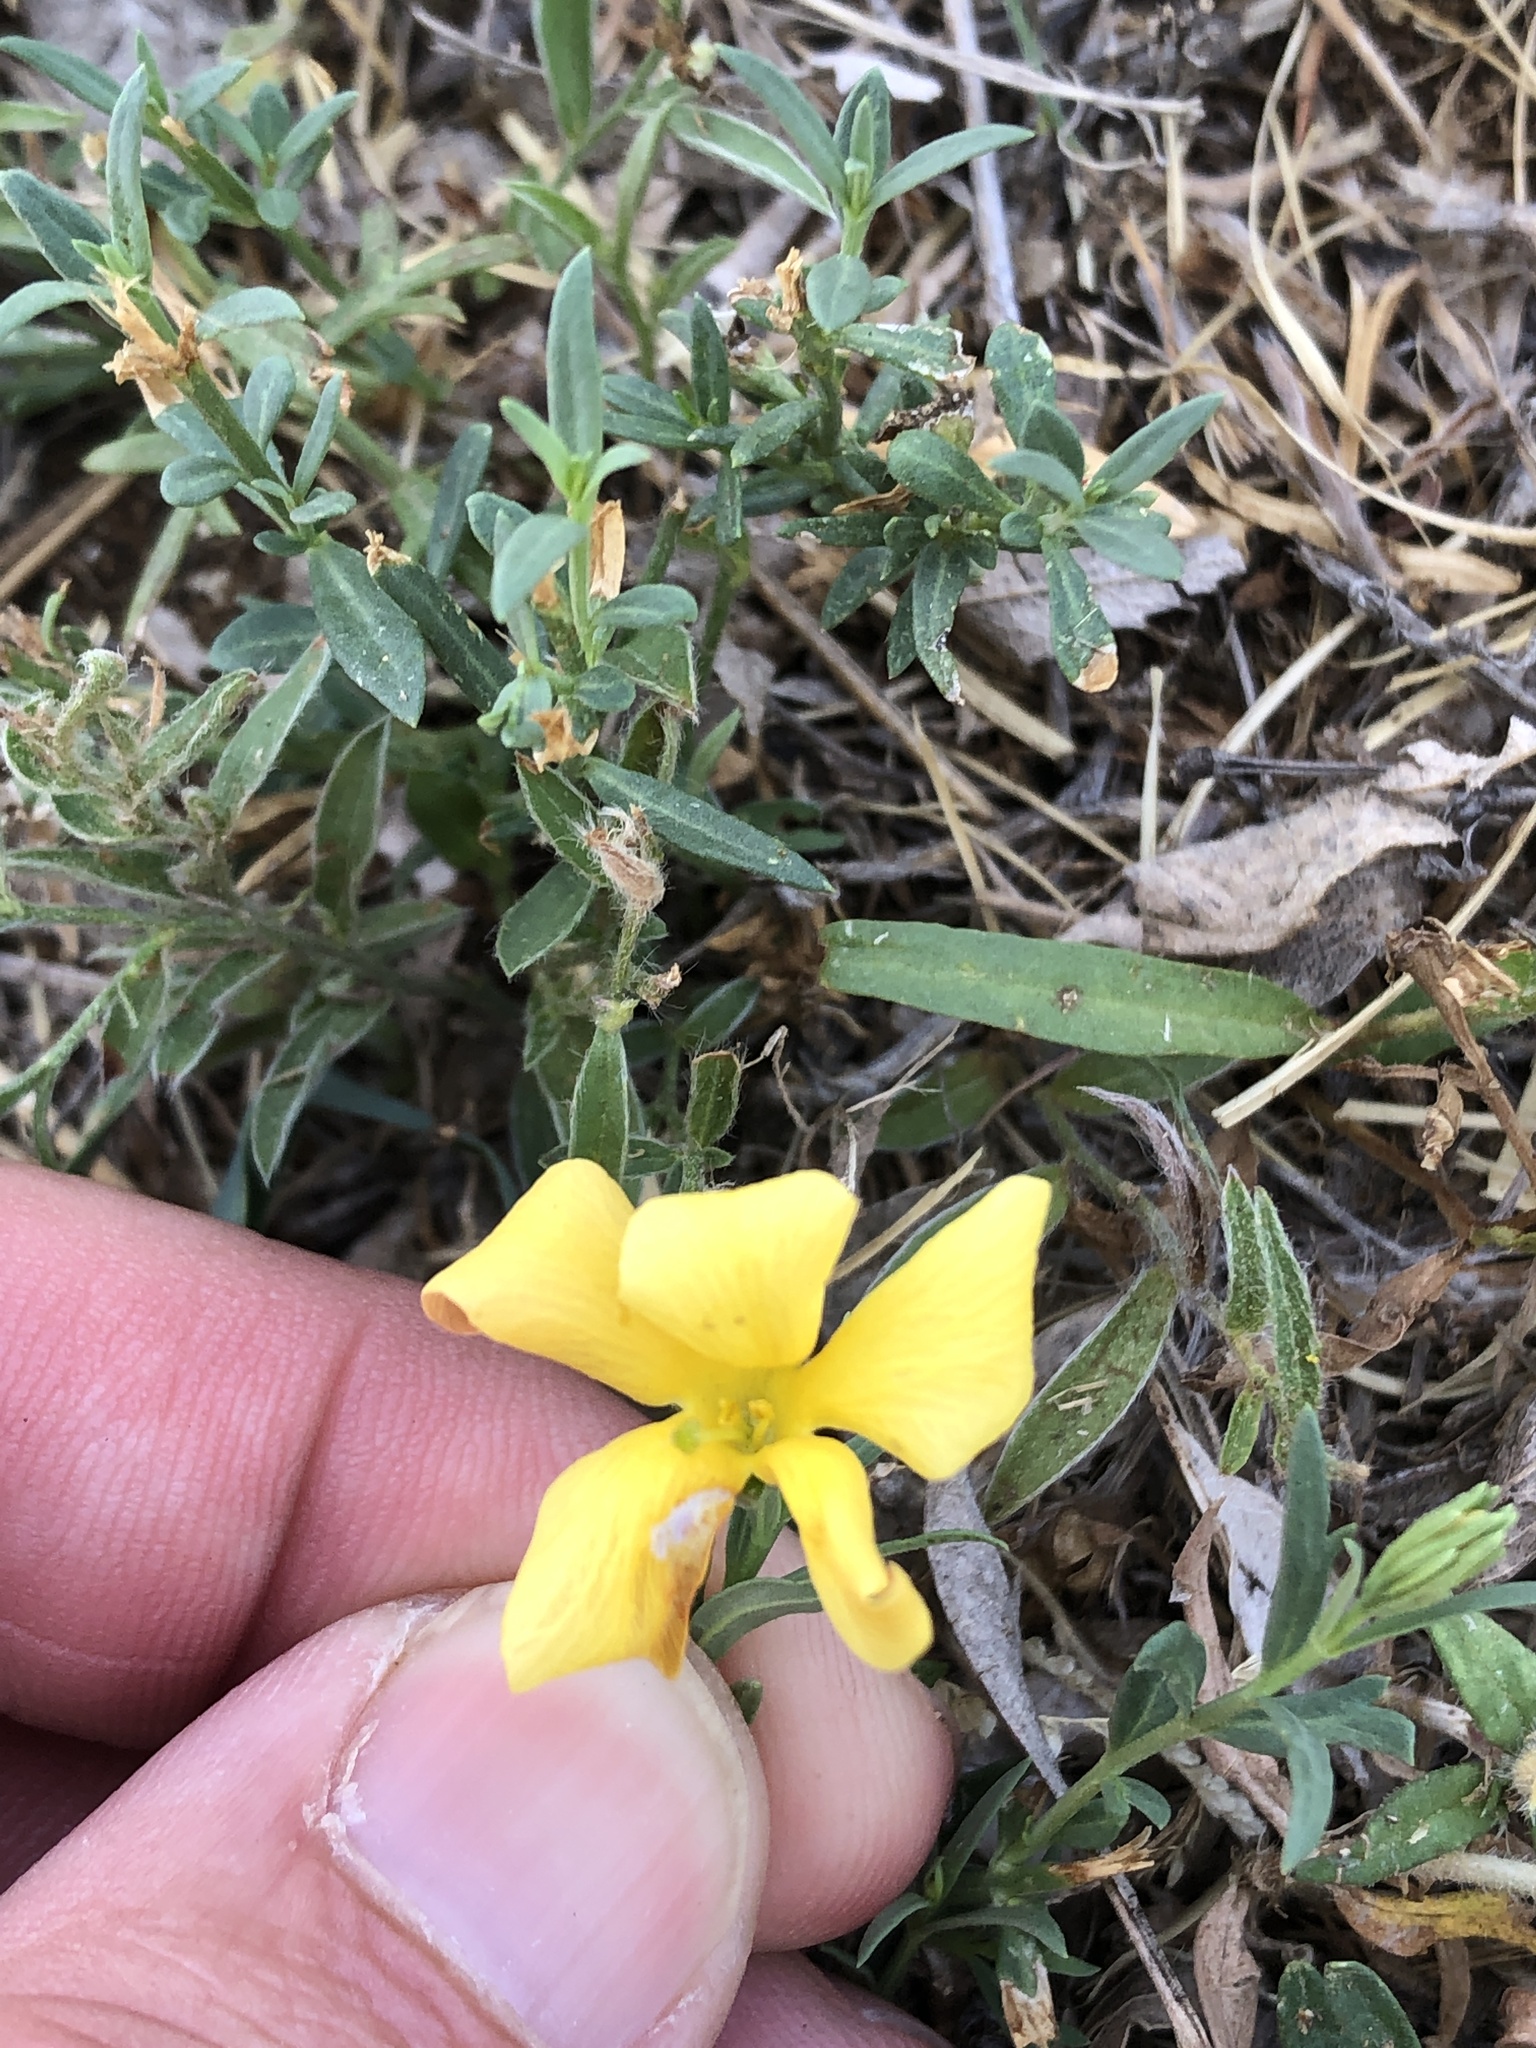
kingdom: Plantae
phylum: Tracheophyta
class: Magnoliopsida
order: Lamiales
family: Oleaceae
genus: Menodora
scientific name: Menodora heterophylla
